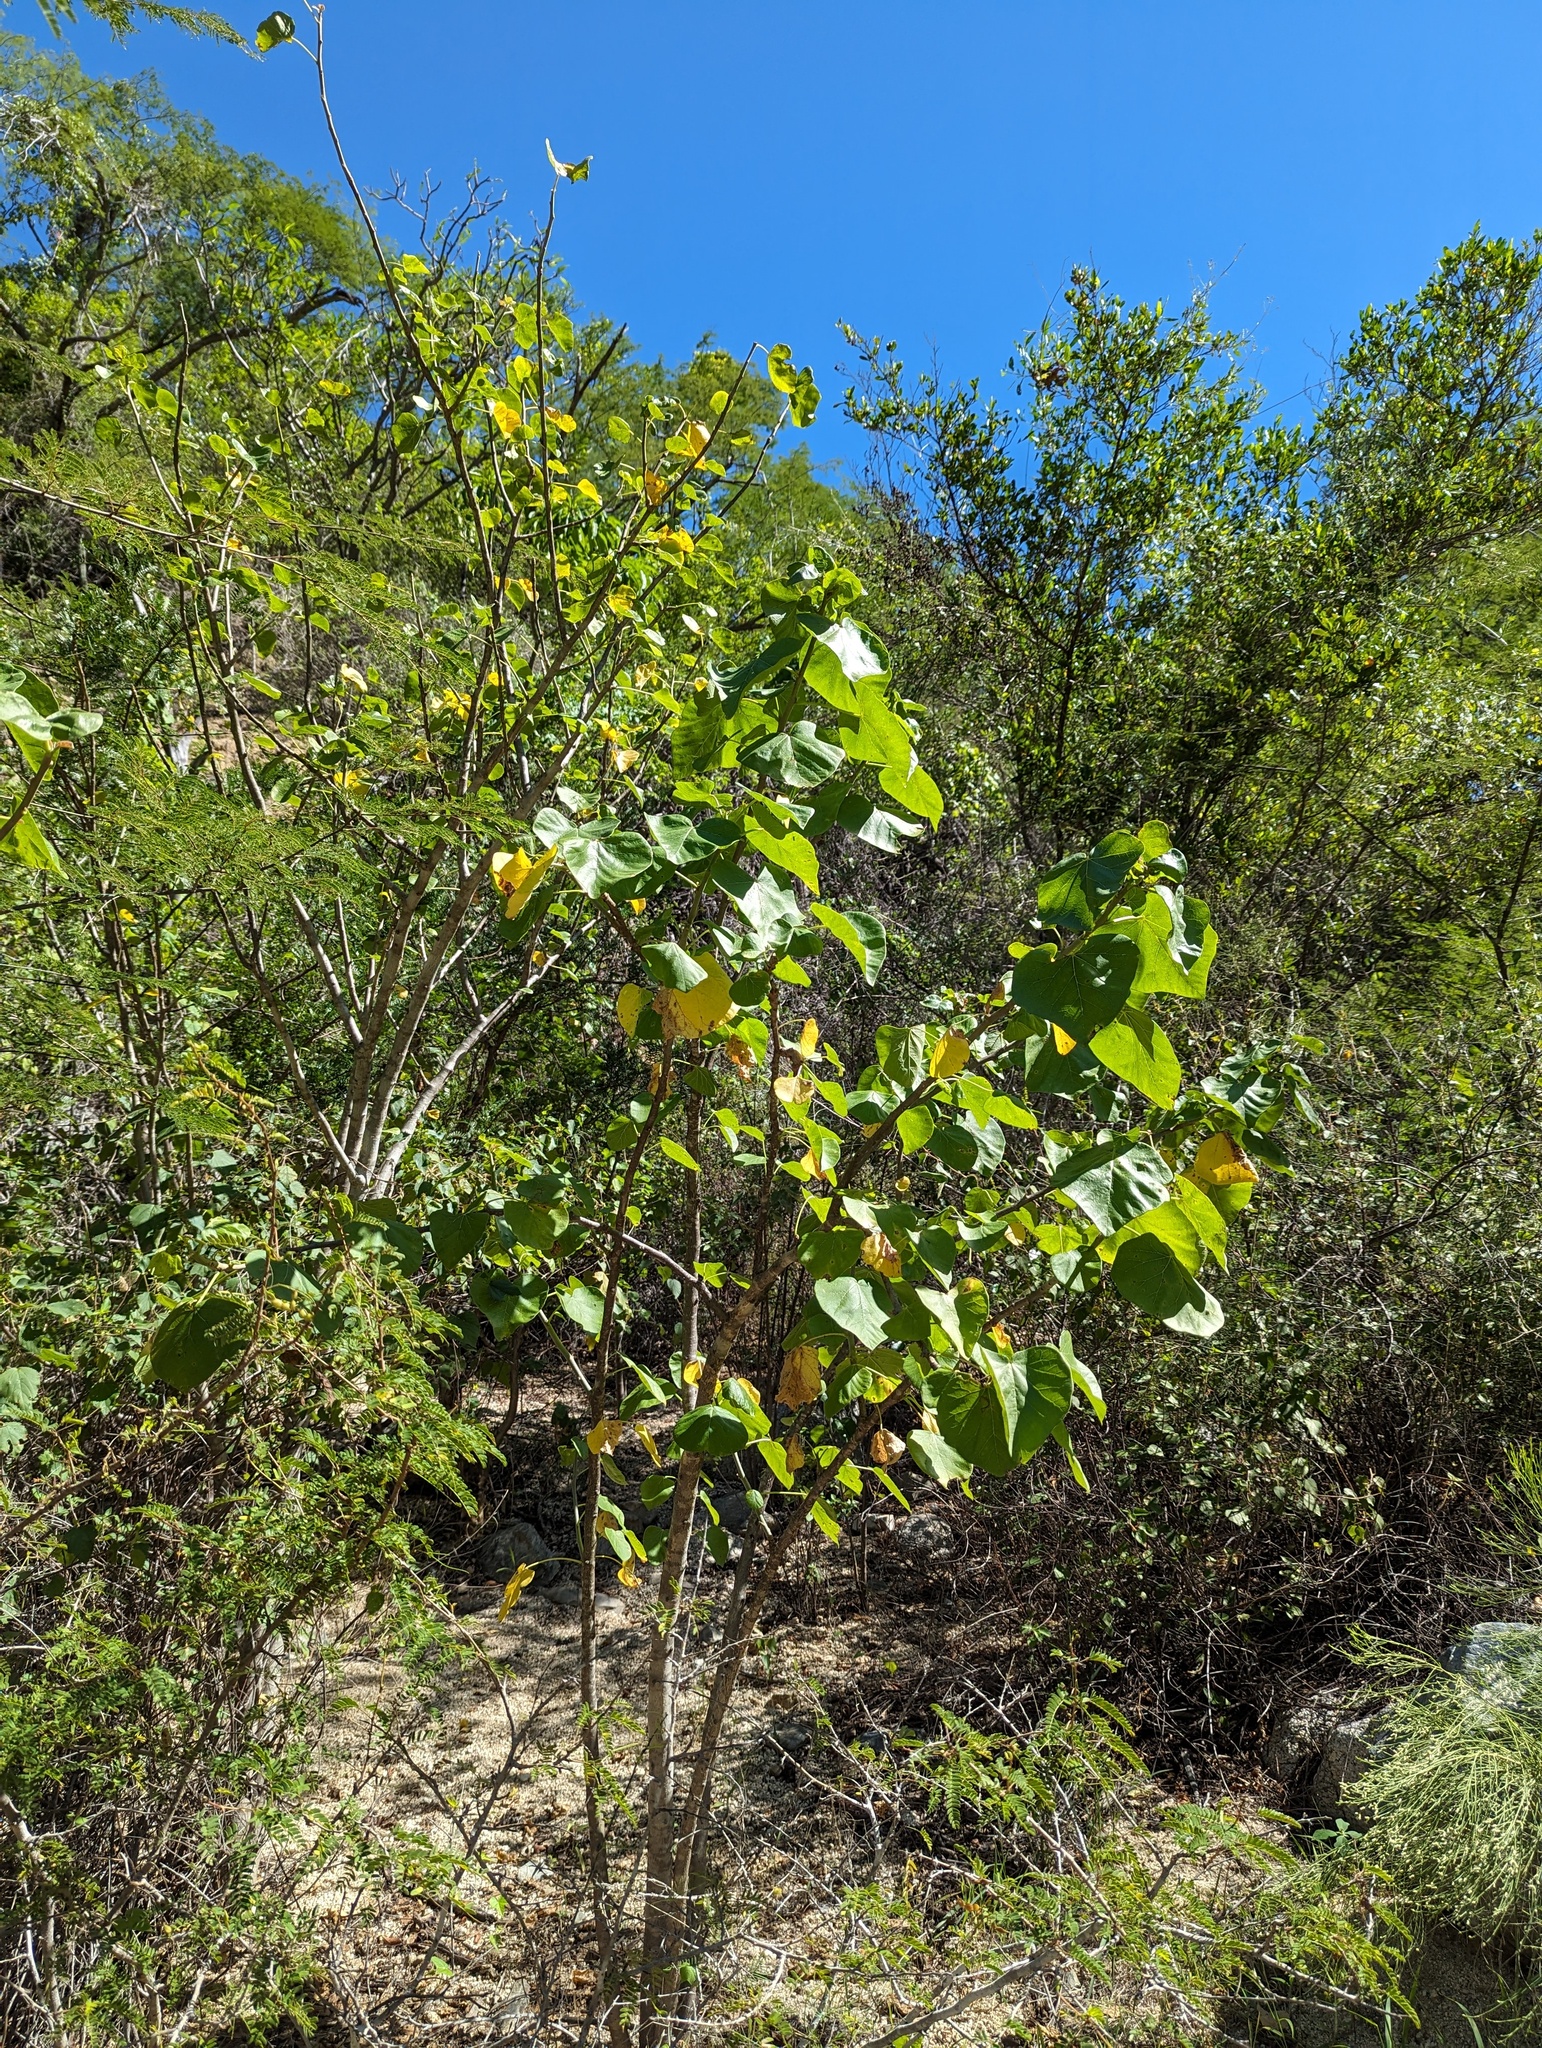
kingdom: Plantae
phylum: Tracheophyta
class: Magnoliopsida
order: Malpighiales
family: Euphorbiaceae
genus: Jatropha
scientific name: Jatropha cinerea
